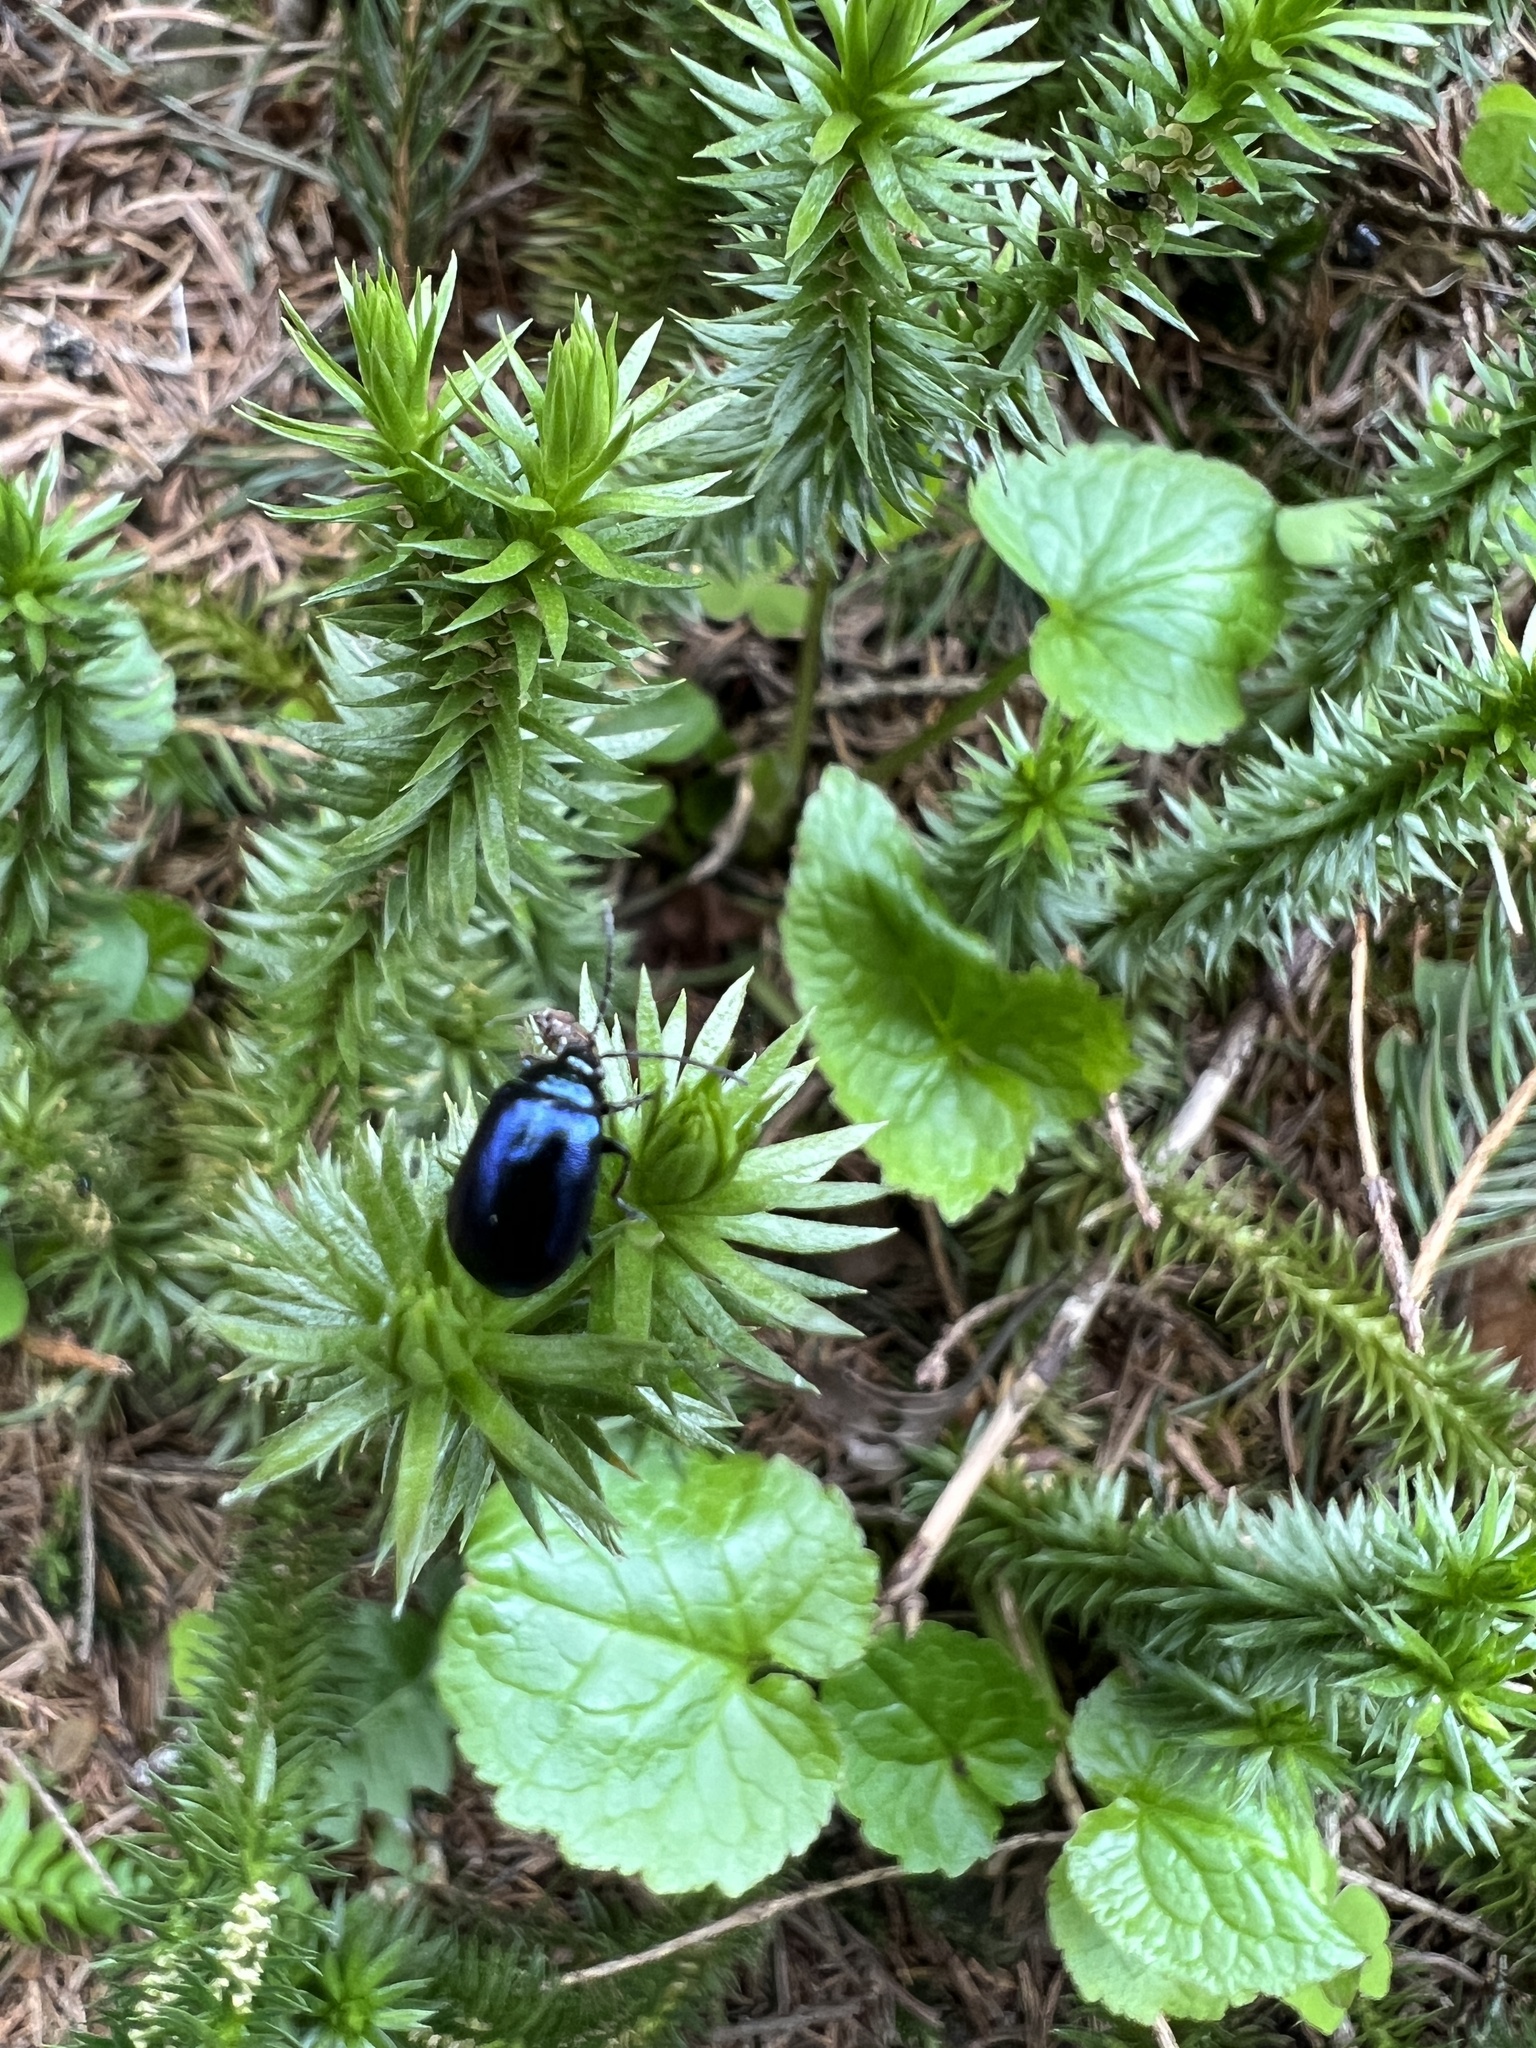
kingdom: Animalia
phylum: Arthropoda
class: Insecta
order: Coleoptera
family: Chrysomelidae
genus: Agelastica
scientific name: Agelastica alni
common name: Alder leaf beetle
